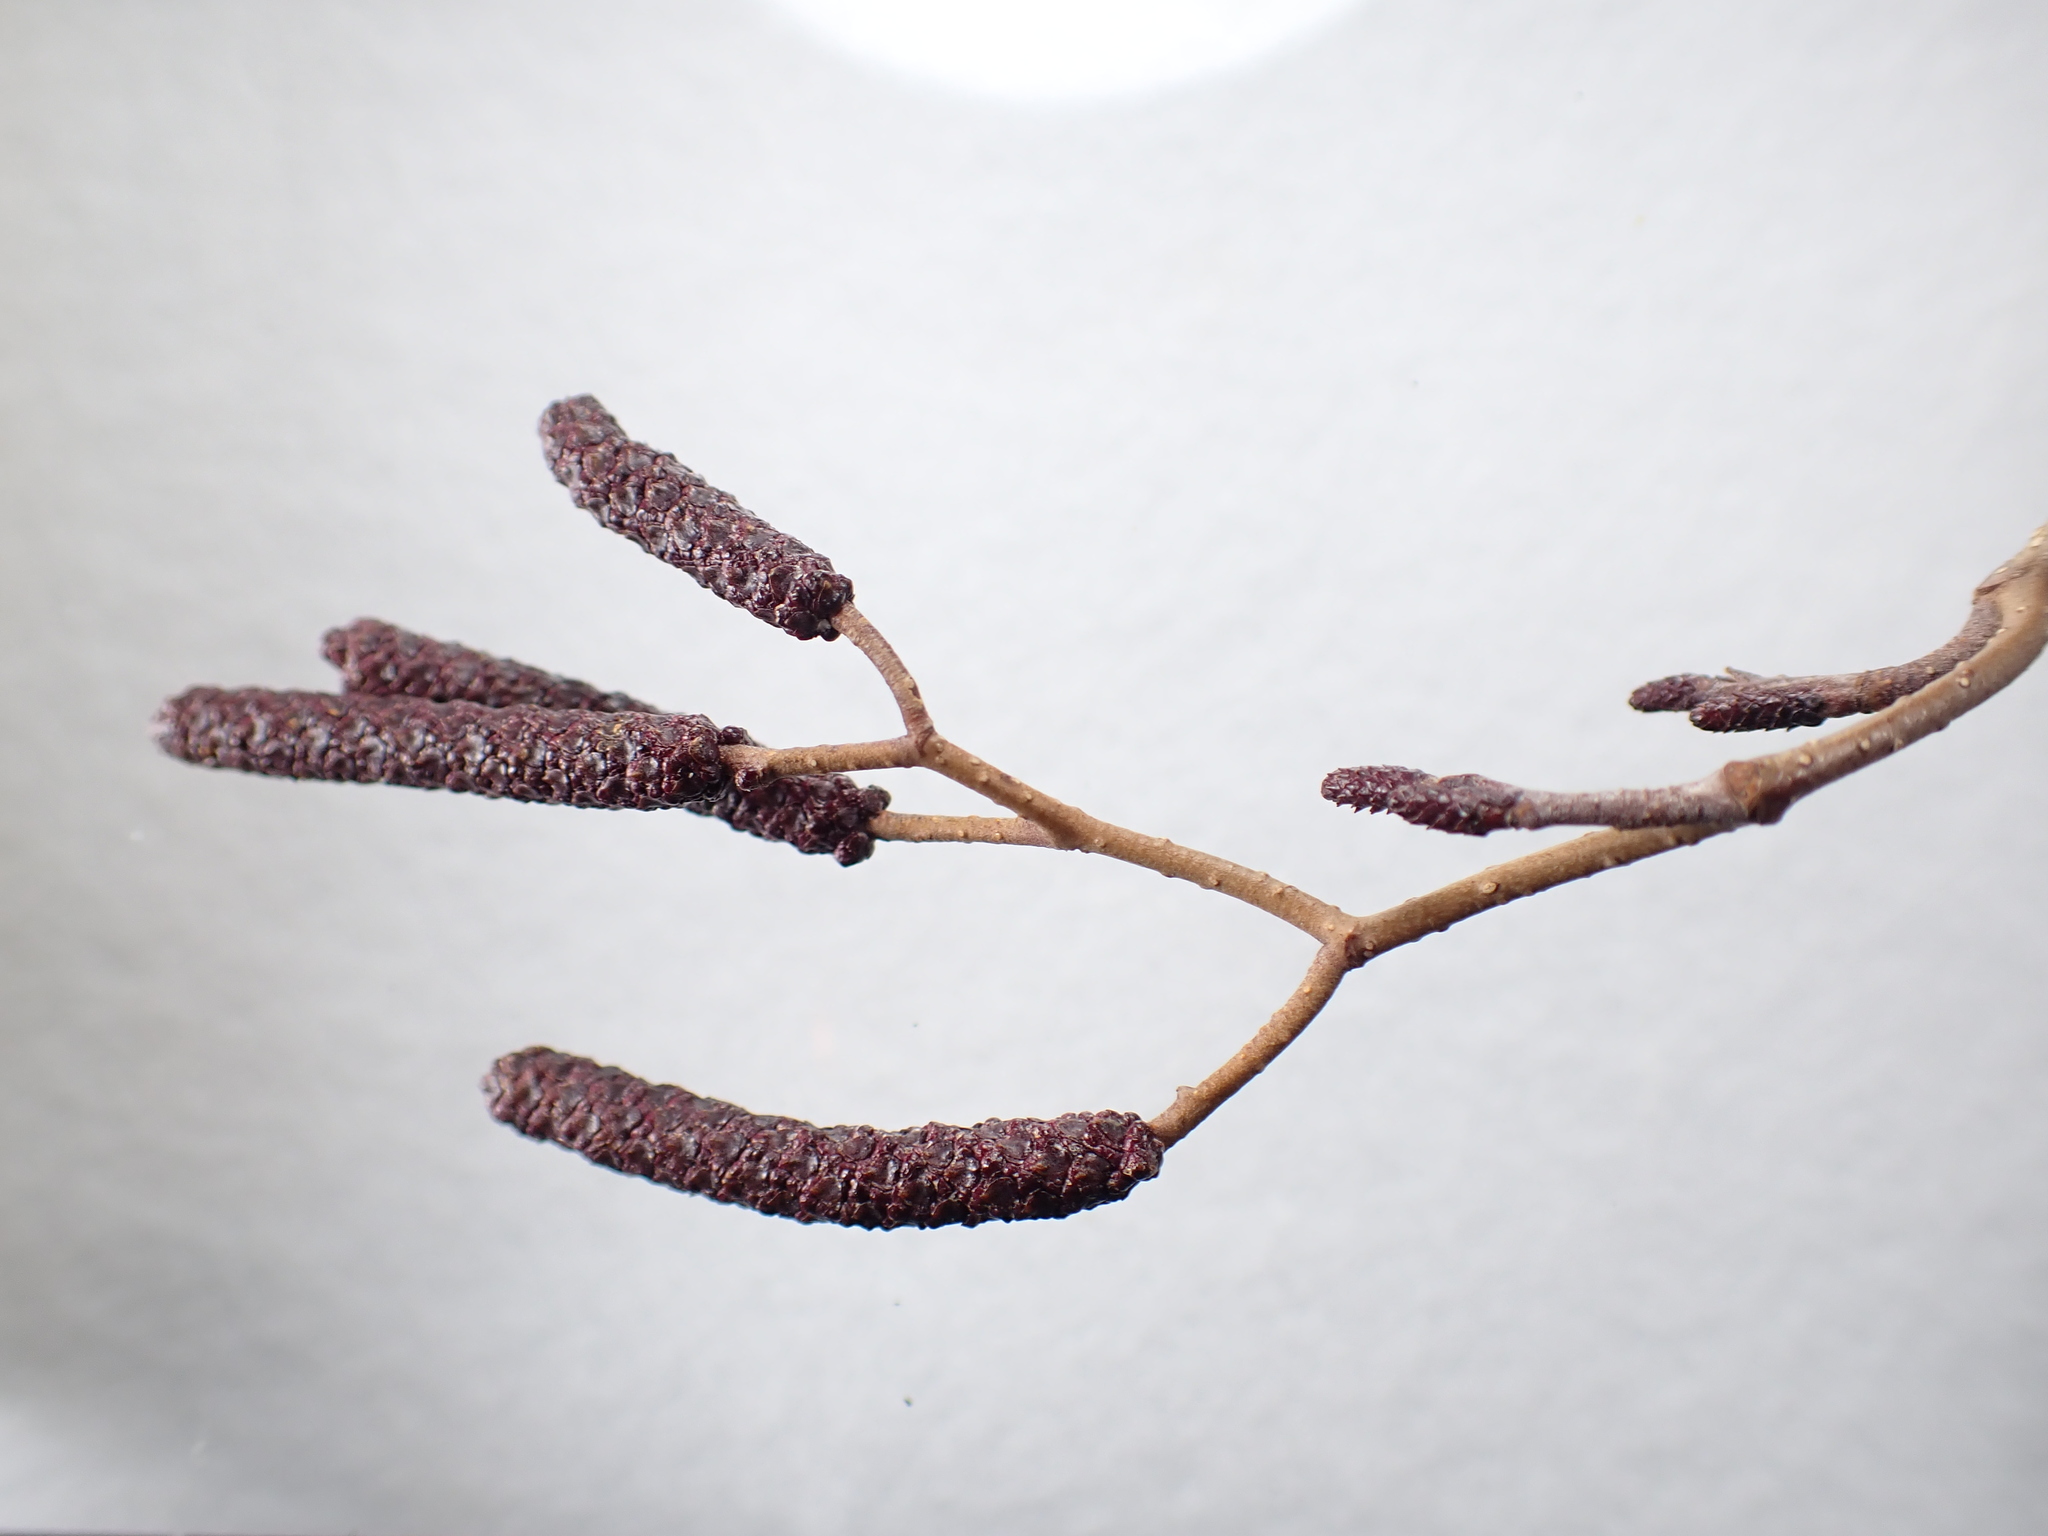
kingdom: Plantae
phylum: Tracheophyta
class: Magnoliopsida
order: Fagales
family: Betulaceae
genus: Alnus
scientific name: Alnus incana
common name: Grey alder
